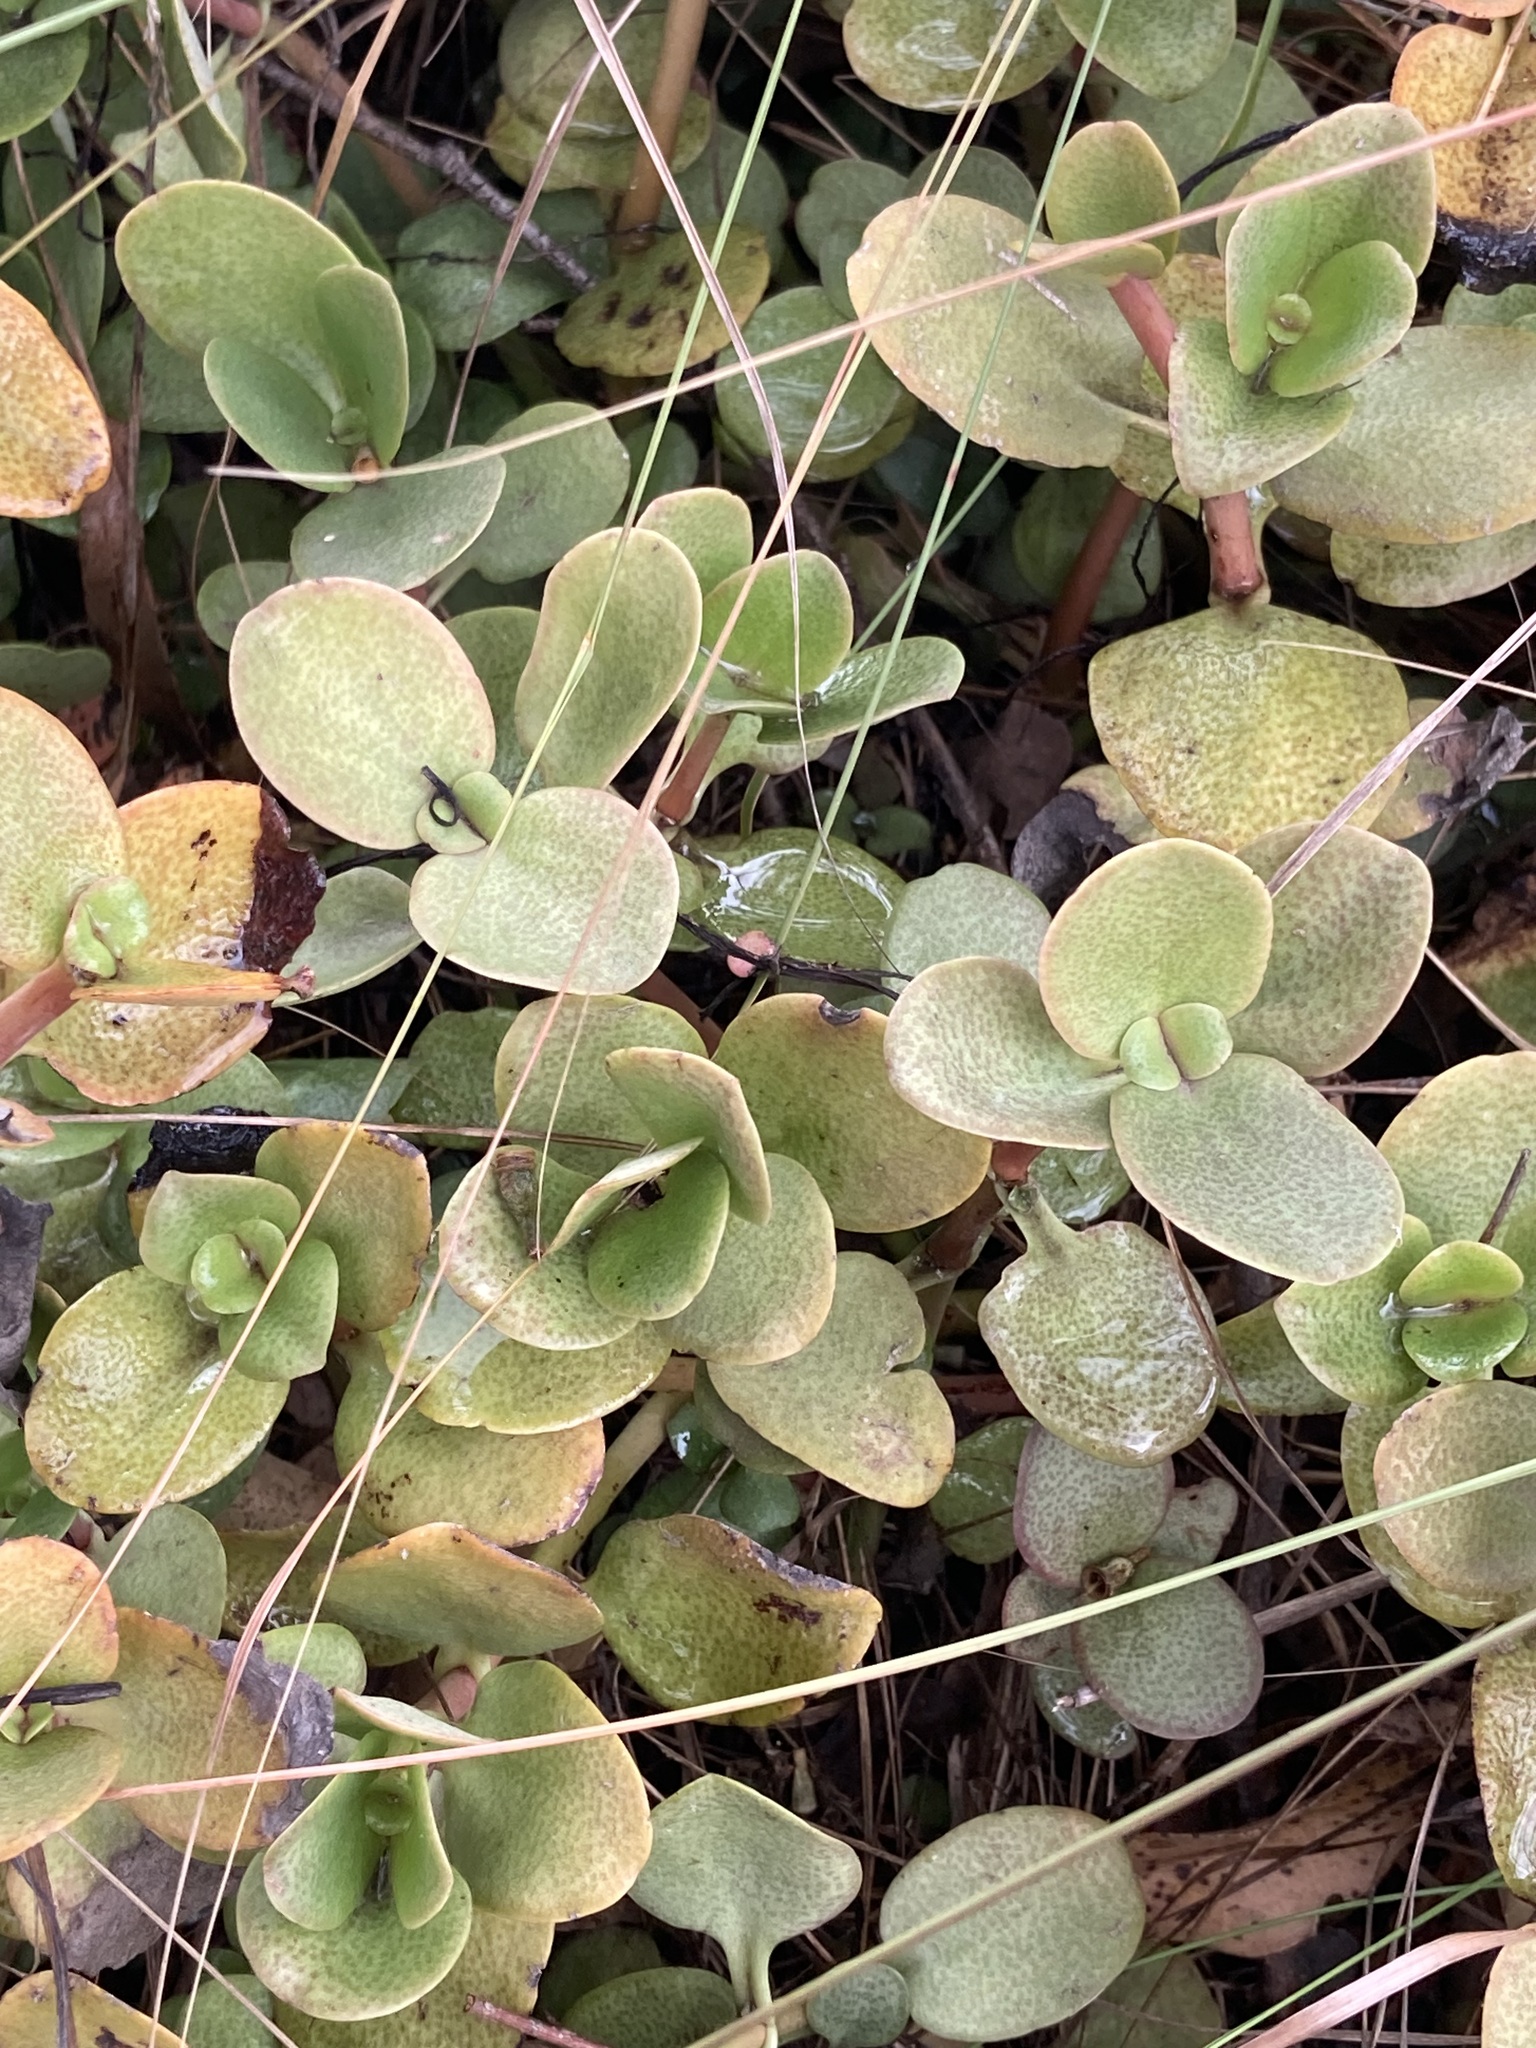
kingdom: Plantae
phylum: Tracheophyta
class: Magnoliopsida
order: Saxifragales
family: Crassulaceae
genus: Crassula
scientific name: Crassula multicava
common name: Cape province pygmyweed
